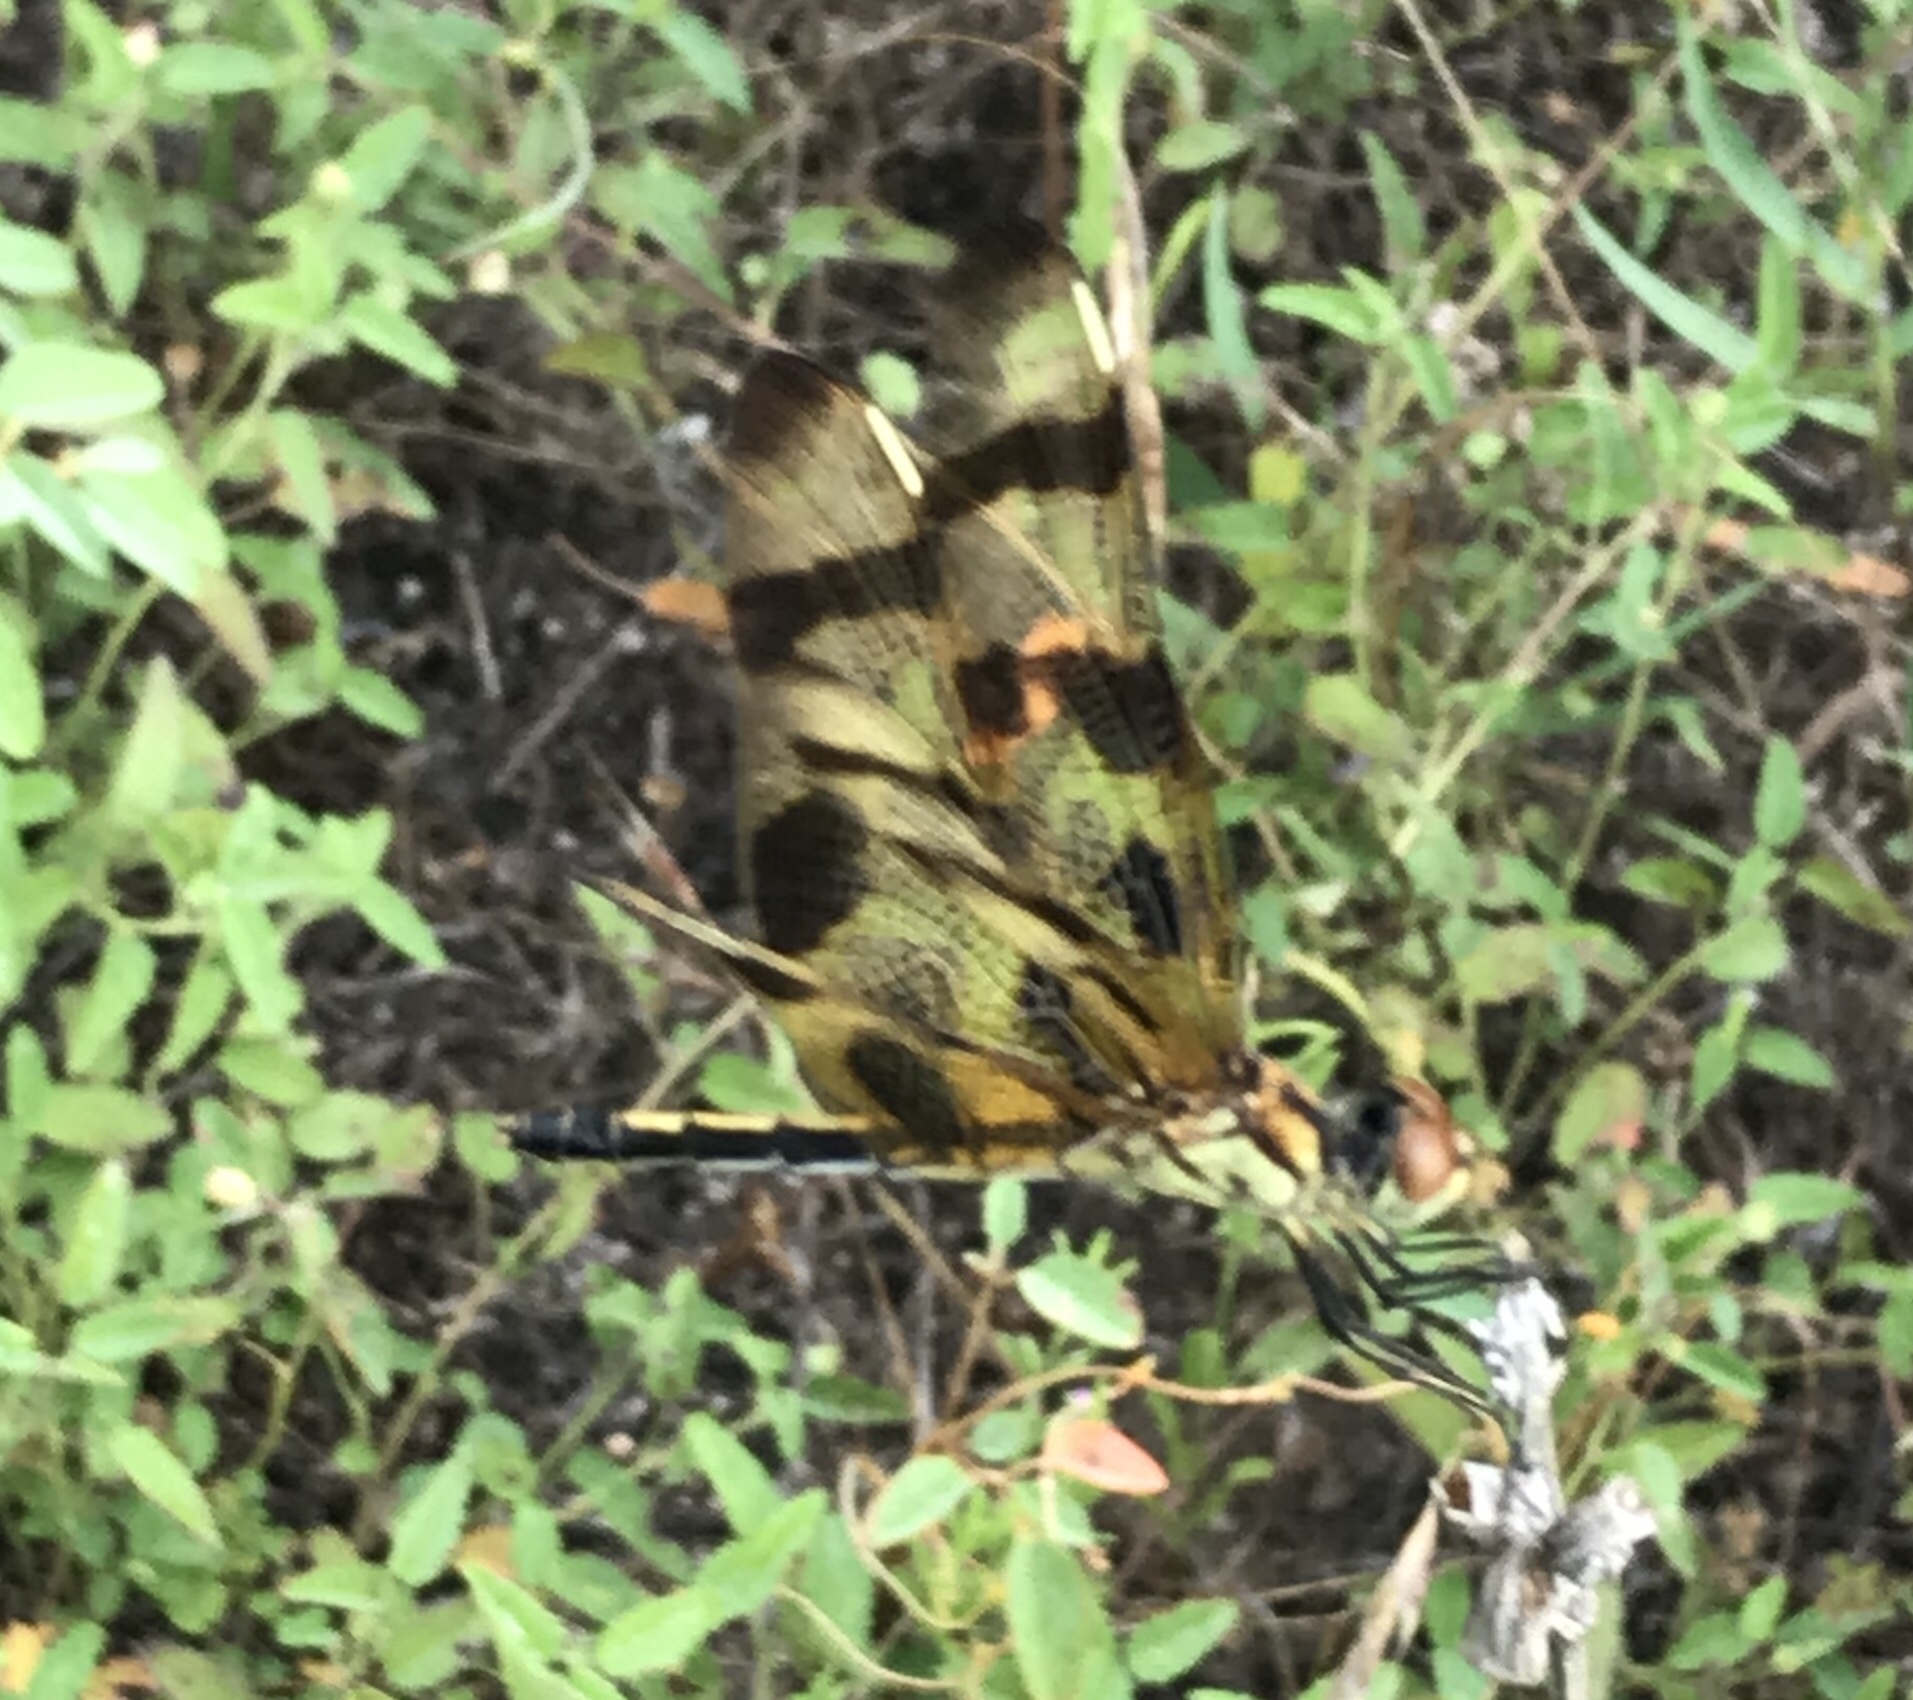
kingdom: Animalia
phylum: Arthropoda
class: Insecta
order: Odonata
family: Libellulidae
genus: Celithemis
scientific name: Celithemis eponina
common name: Halloween pennant
